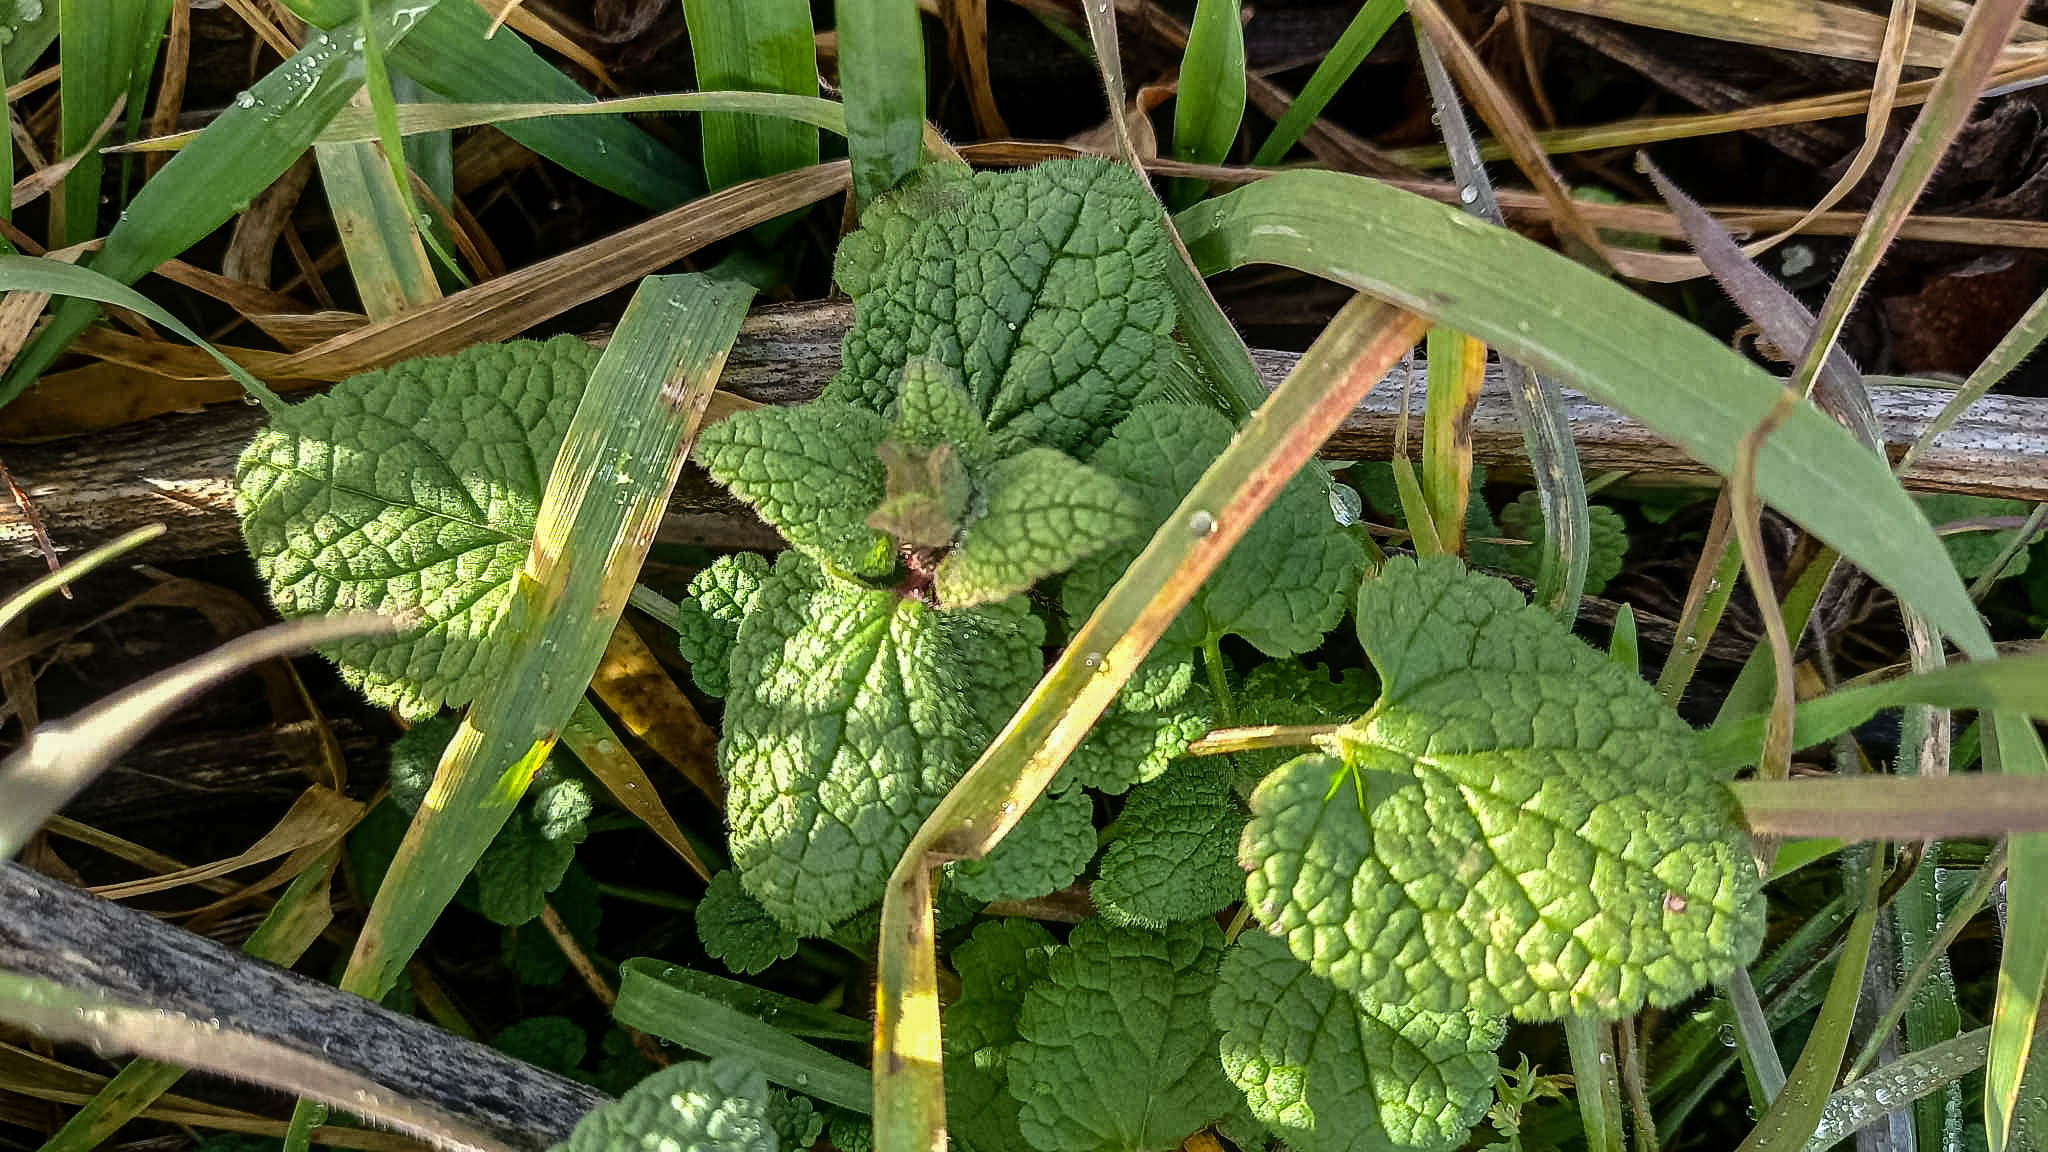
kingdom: Plantae
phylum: Tracheophyta
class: Magnoliopsida
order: Lamiales
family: Lamiaceae
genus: Marrubium
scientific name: Marrubium vulgare
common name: Horehound
